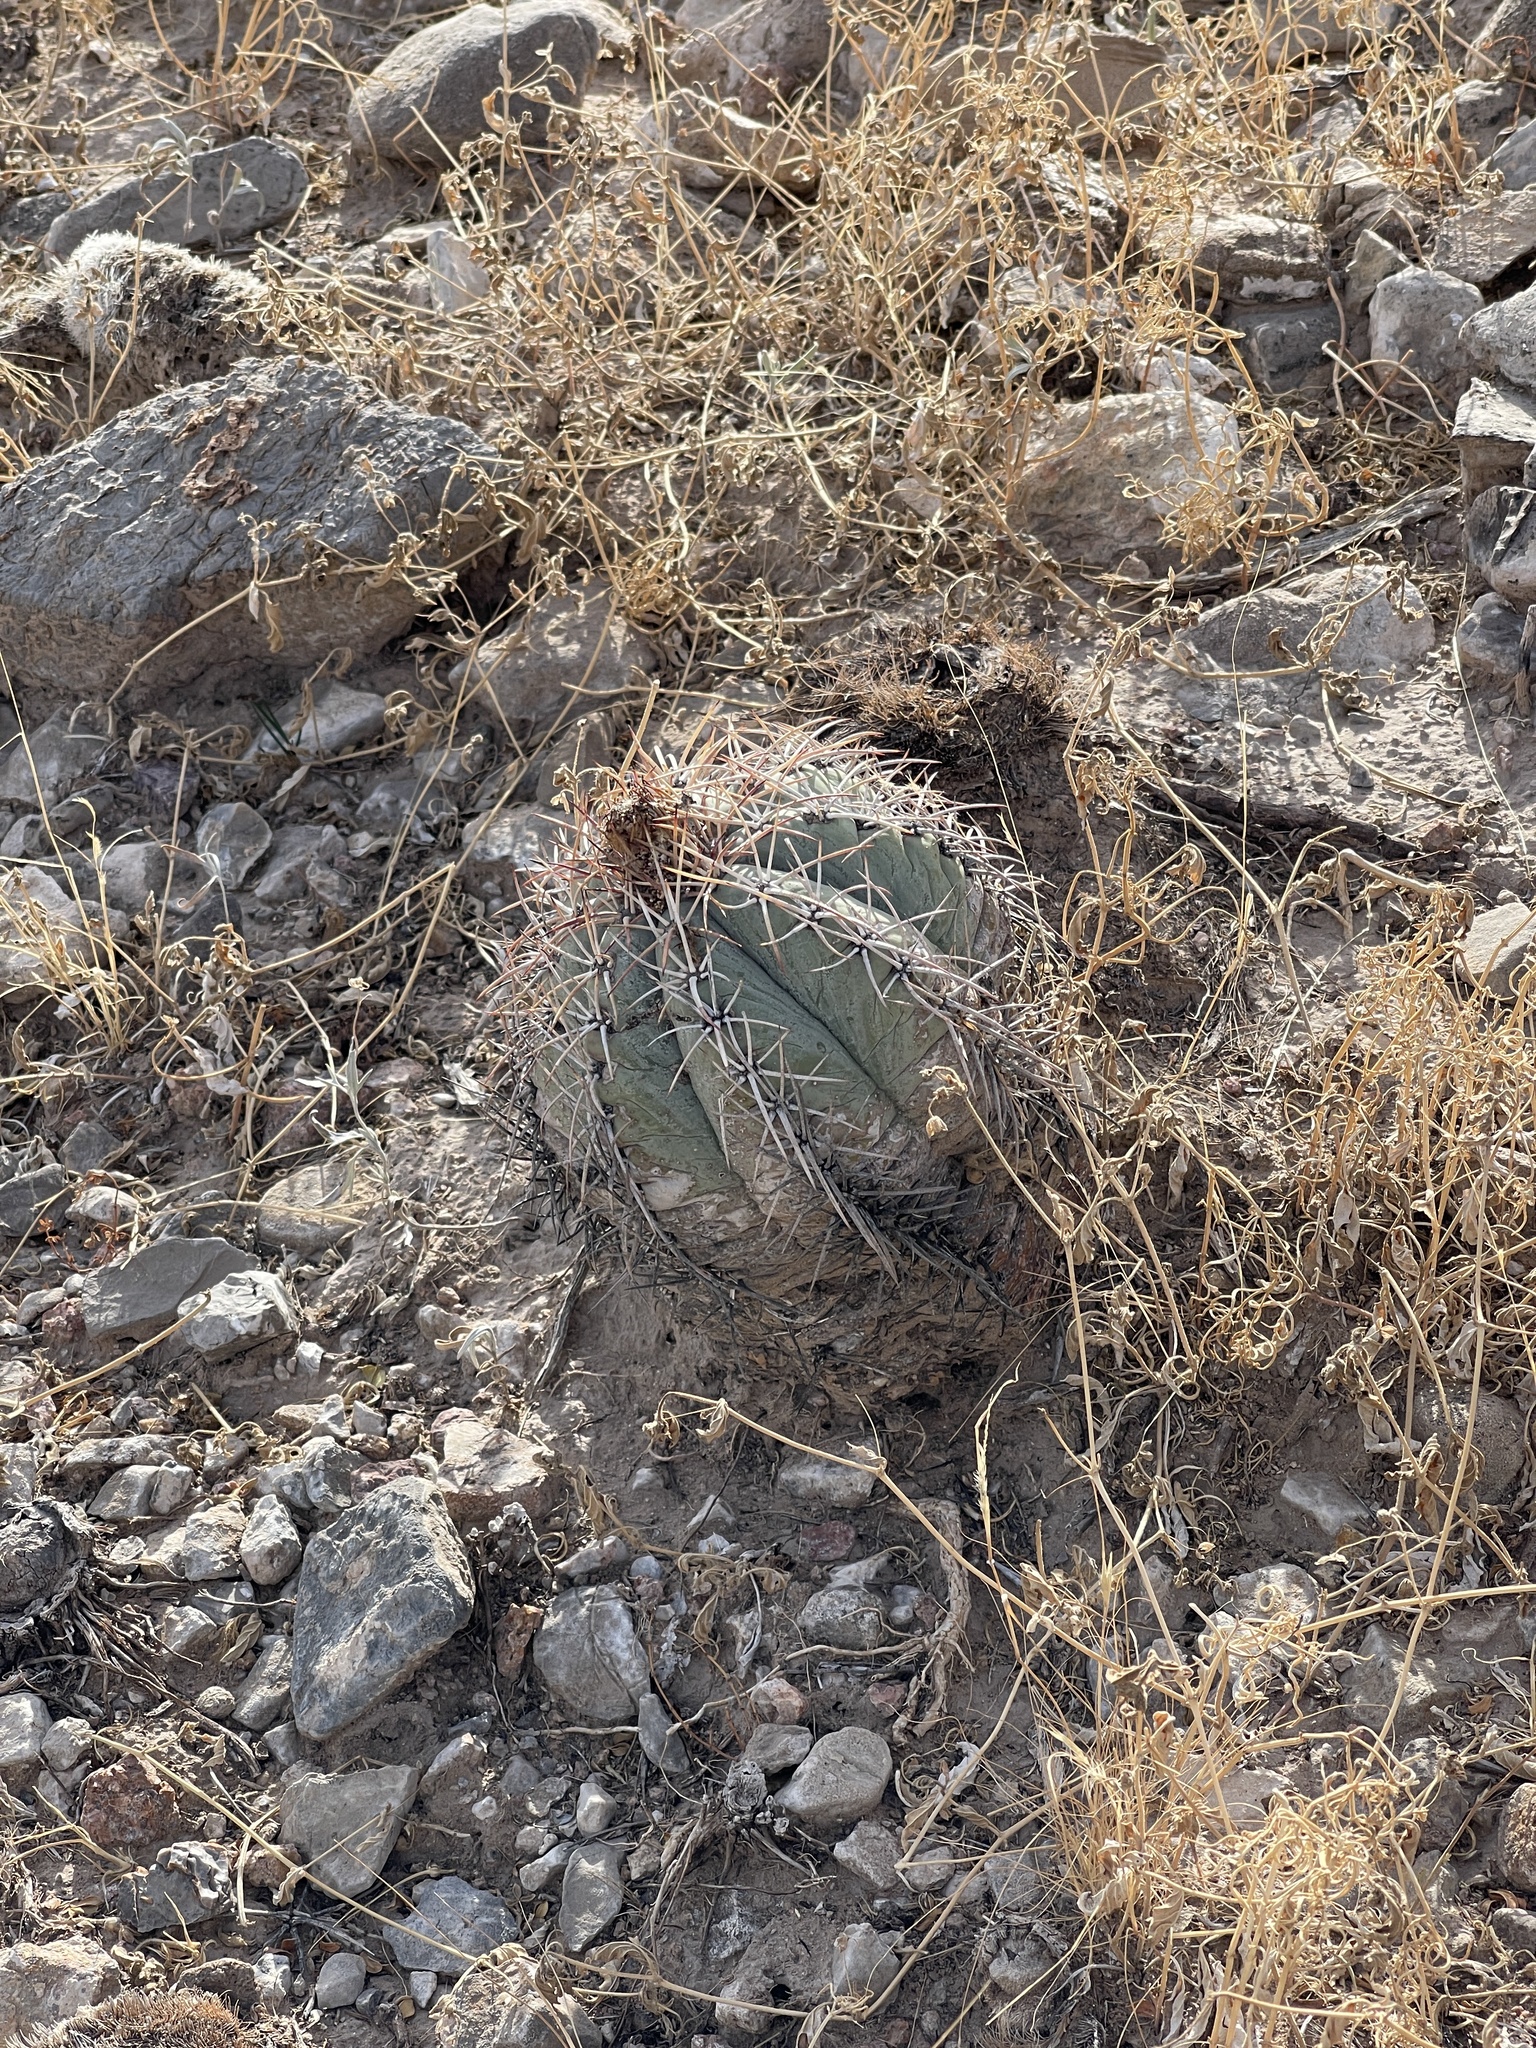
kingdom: Plantae
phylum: Tracheophyta
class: Magnoliopsida
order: Caryophyllales
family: Cactaceae
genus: Echinocactus
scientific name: Echinocactus horizonthalonius
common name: Devilshead
